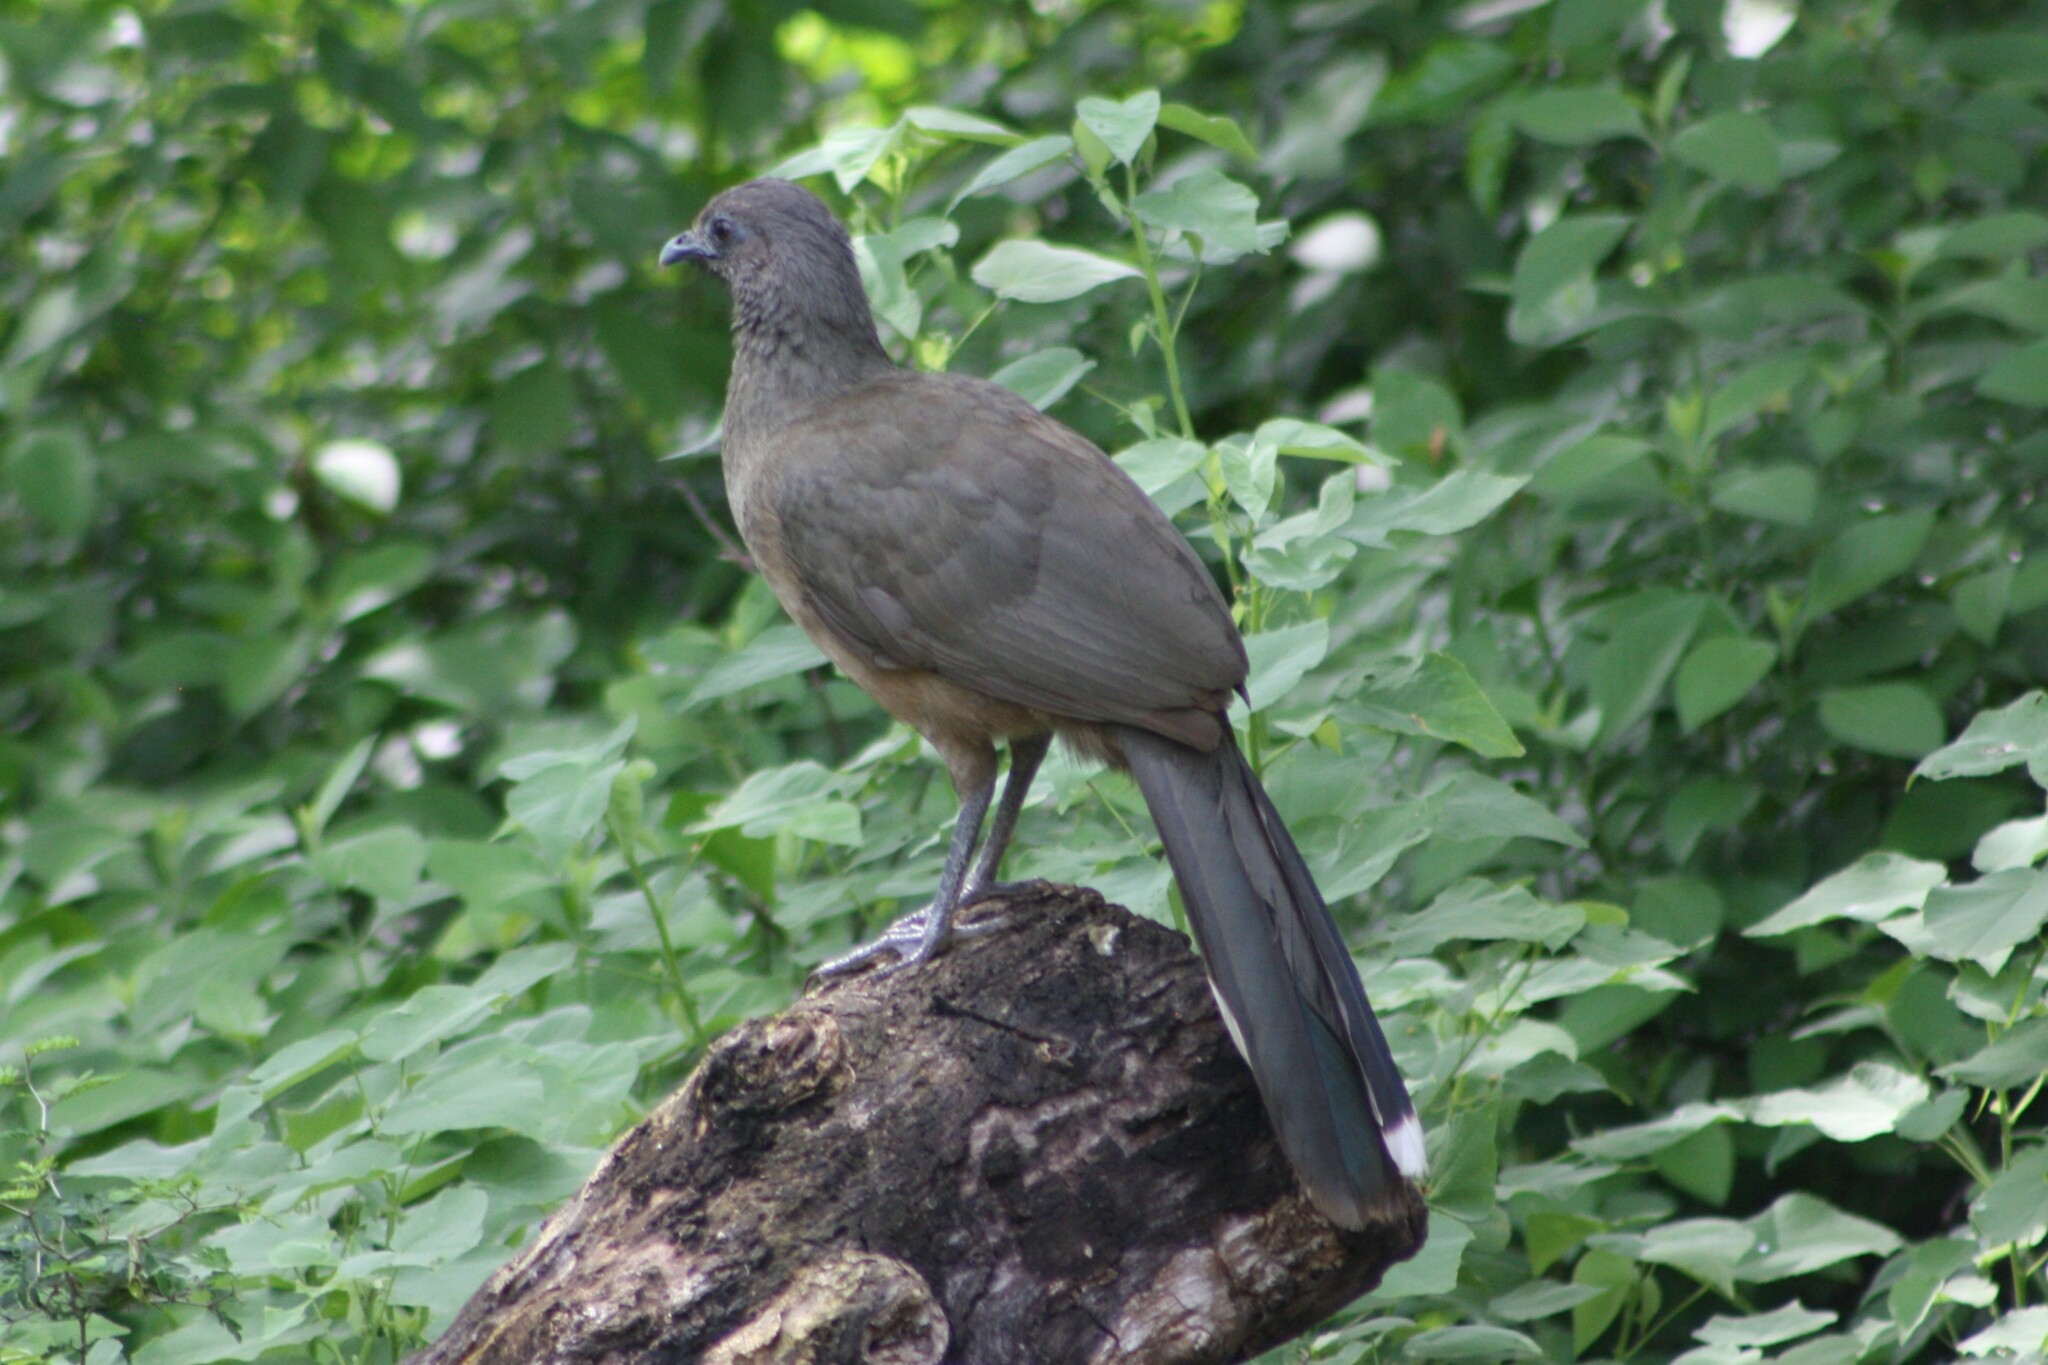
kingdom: Animalia
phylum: Chordata
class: Aves
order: Galliformes
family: Cracidae
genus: Ortalis
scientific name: Ortalis vetula
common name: Plain chachalaca
